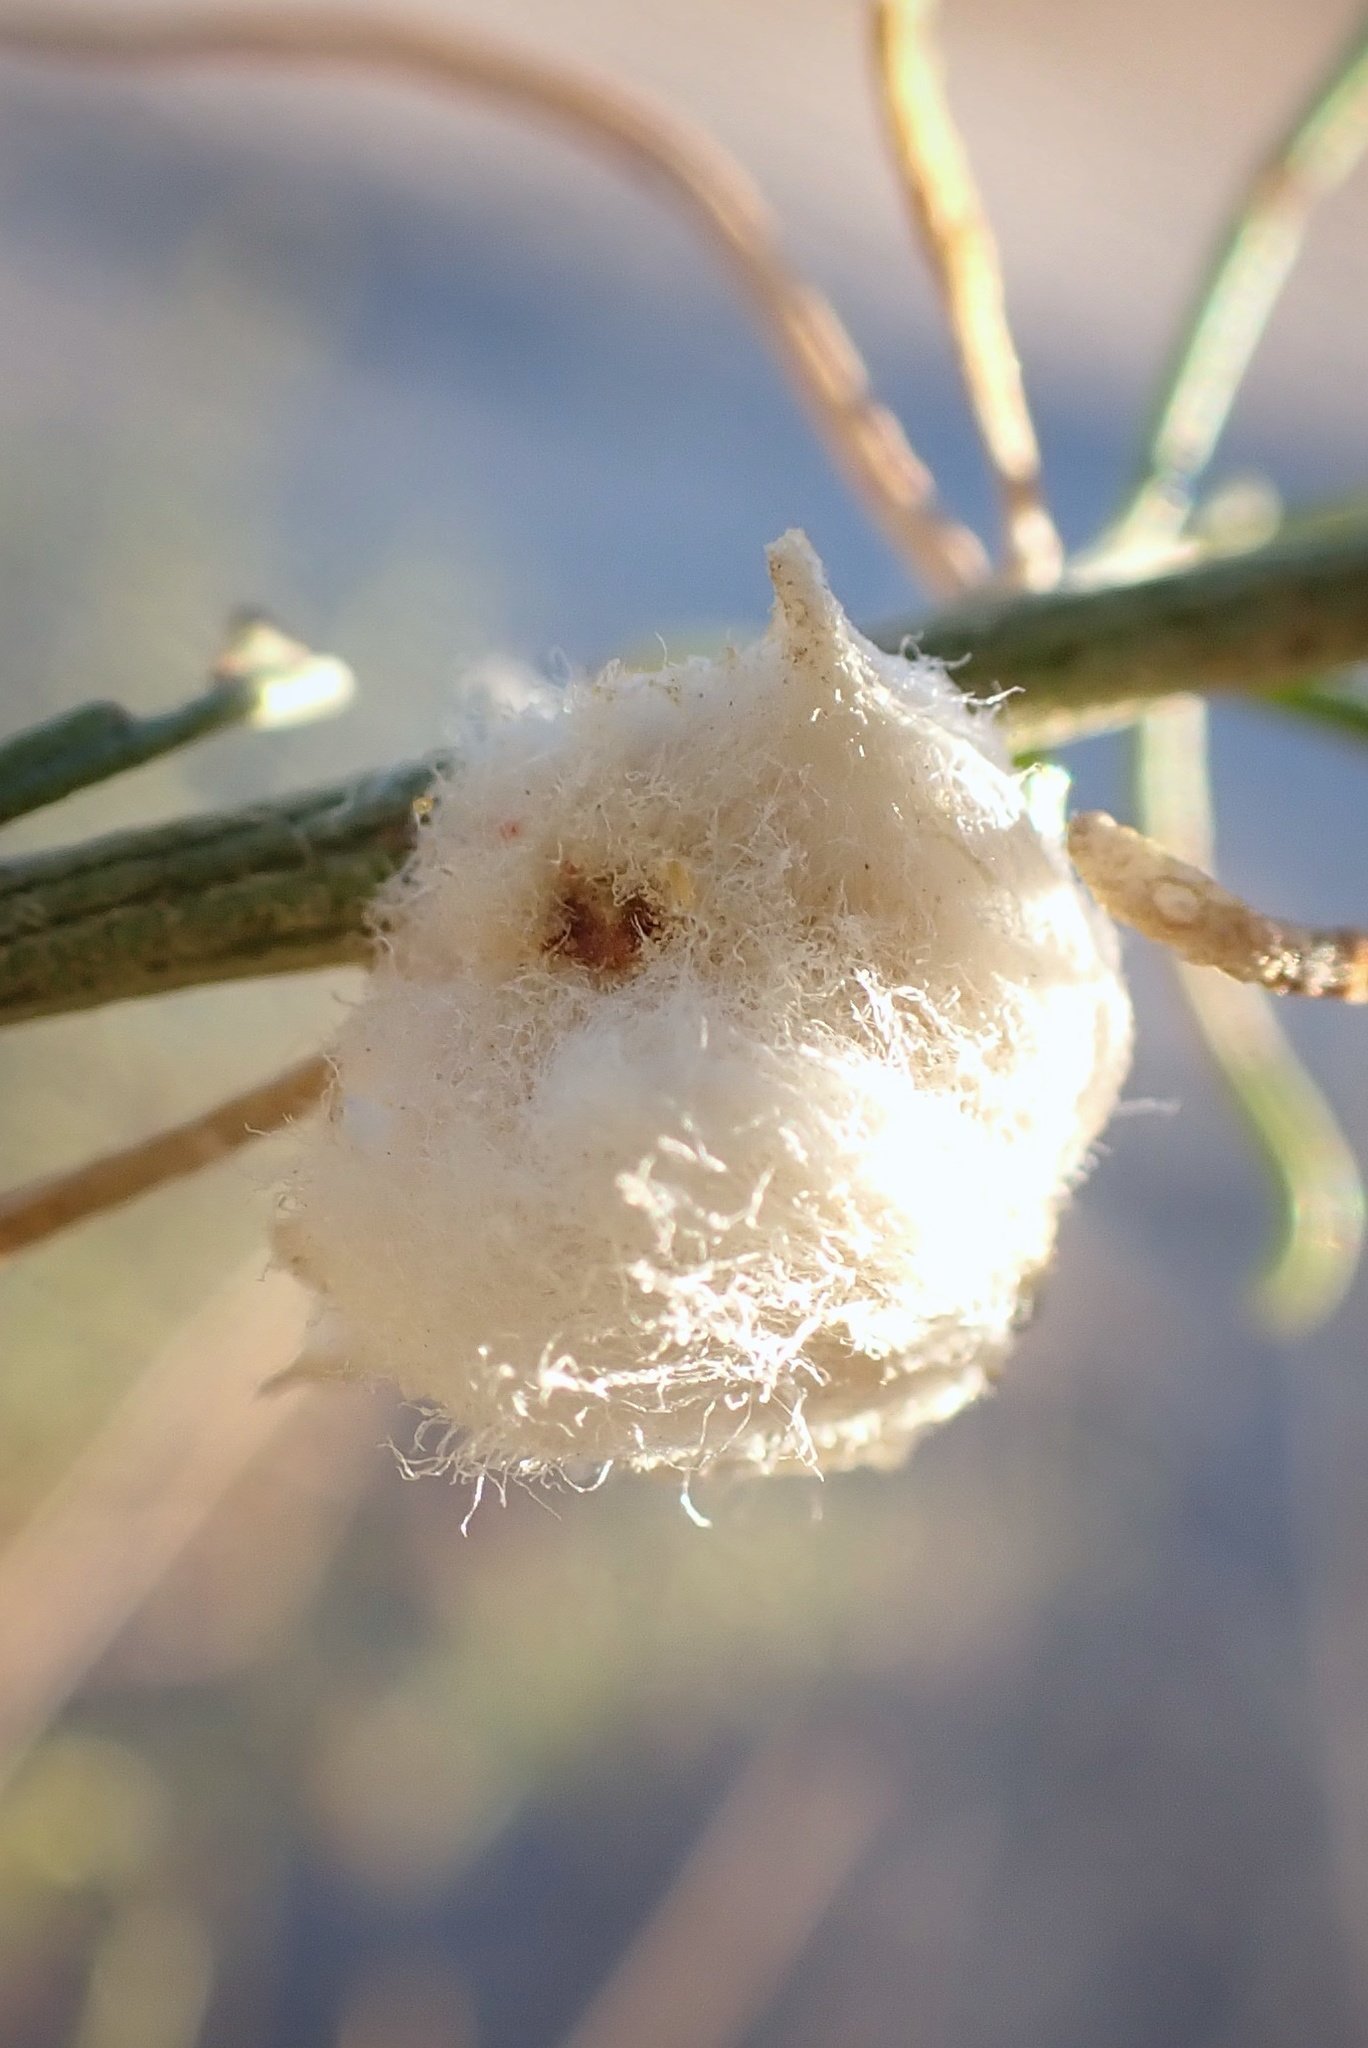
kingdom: Animalia
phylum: Arthropoda
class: Insecta
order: Diptera
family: Cecidomyiidae
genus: Asphondylia
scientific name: Asphondylia
